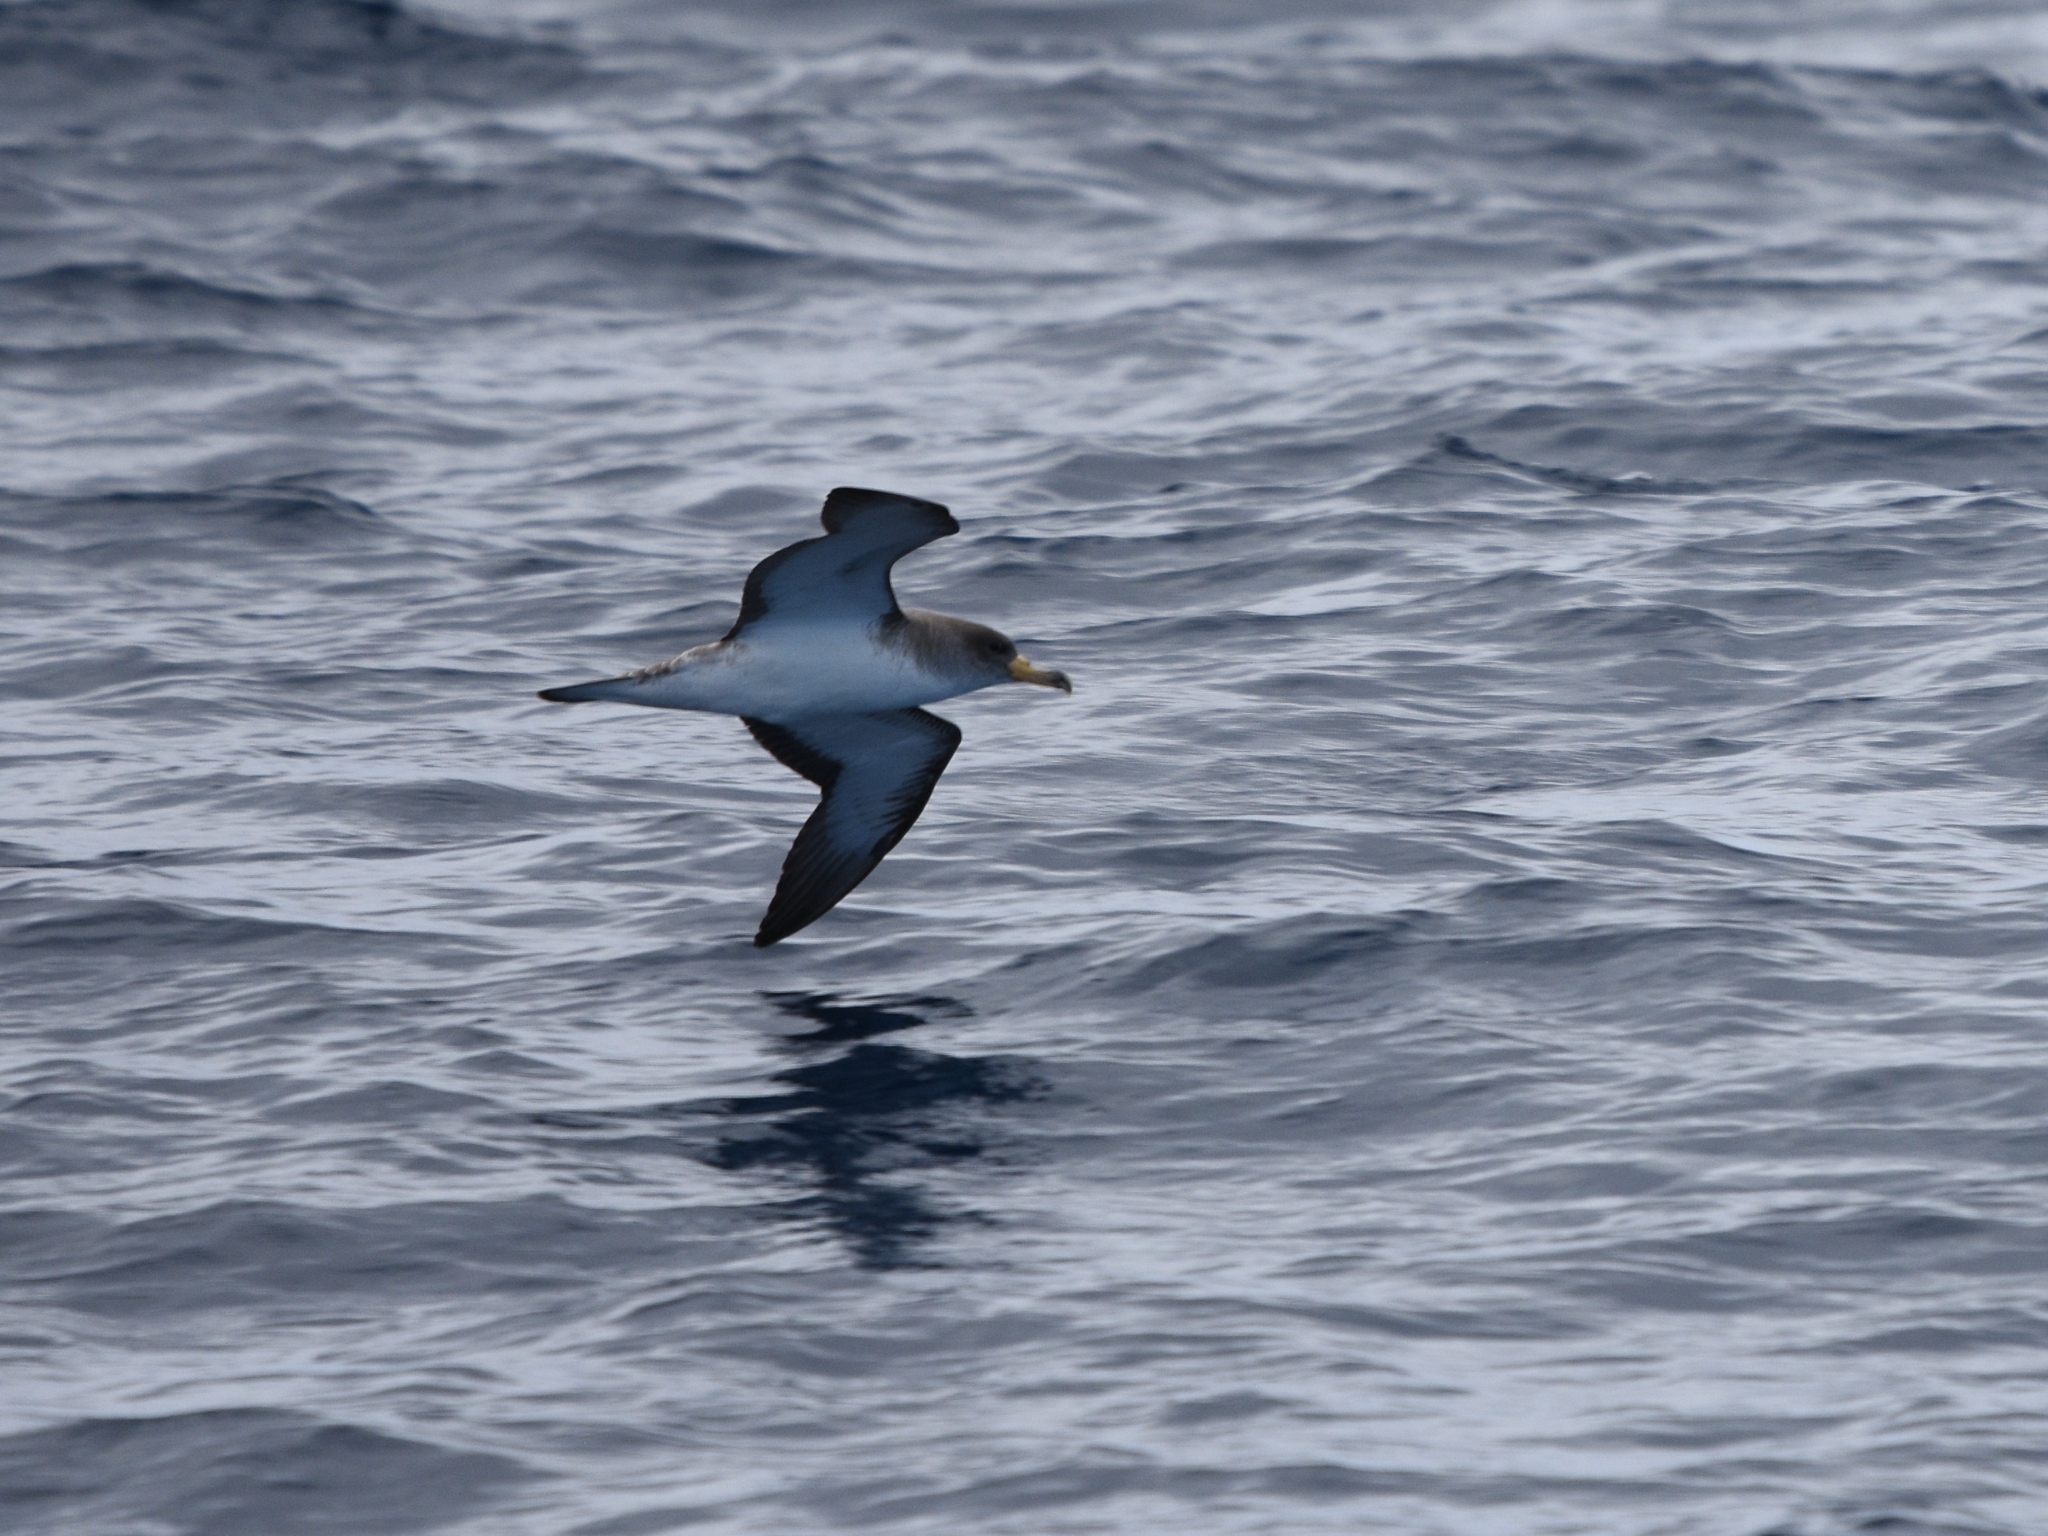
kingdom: Animalia
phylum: Chordata
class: Aves
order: Procellariiformes
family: Procellariidae
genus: Calonectris
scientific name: Calonectris diomedea
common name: Cory's shearwater
